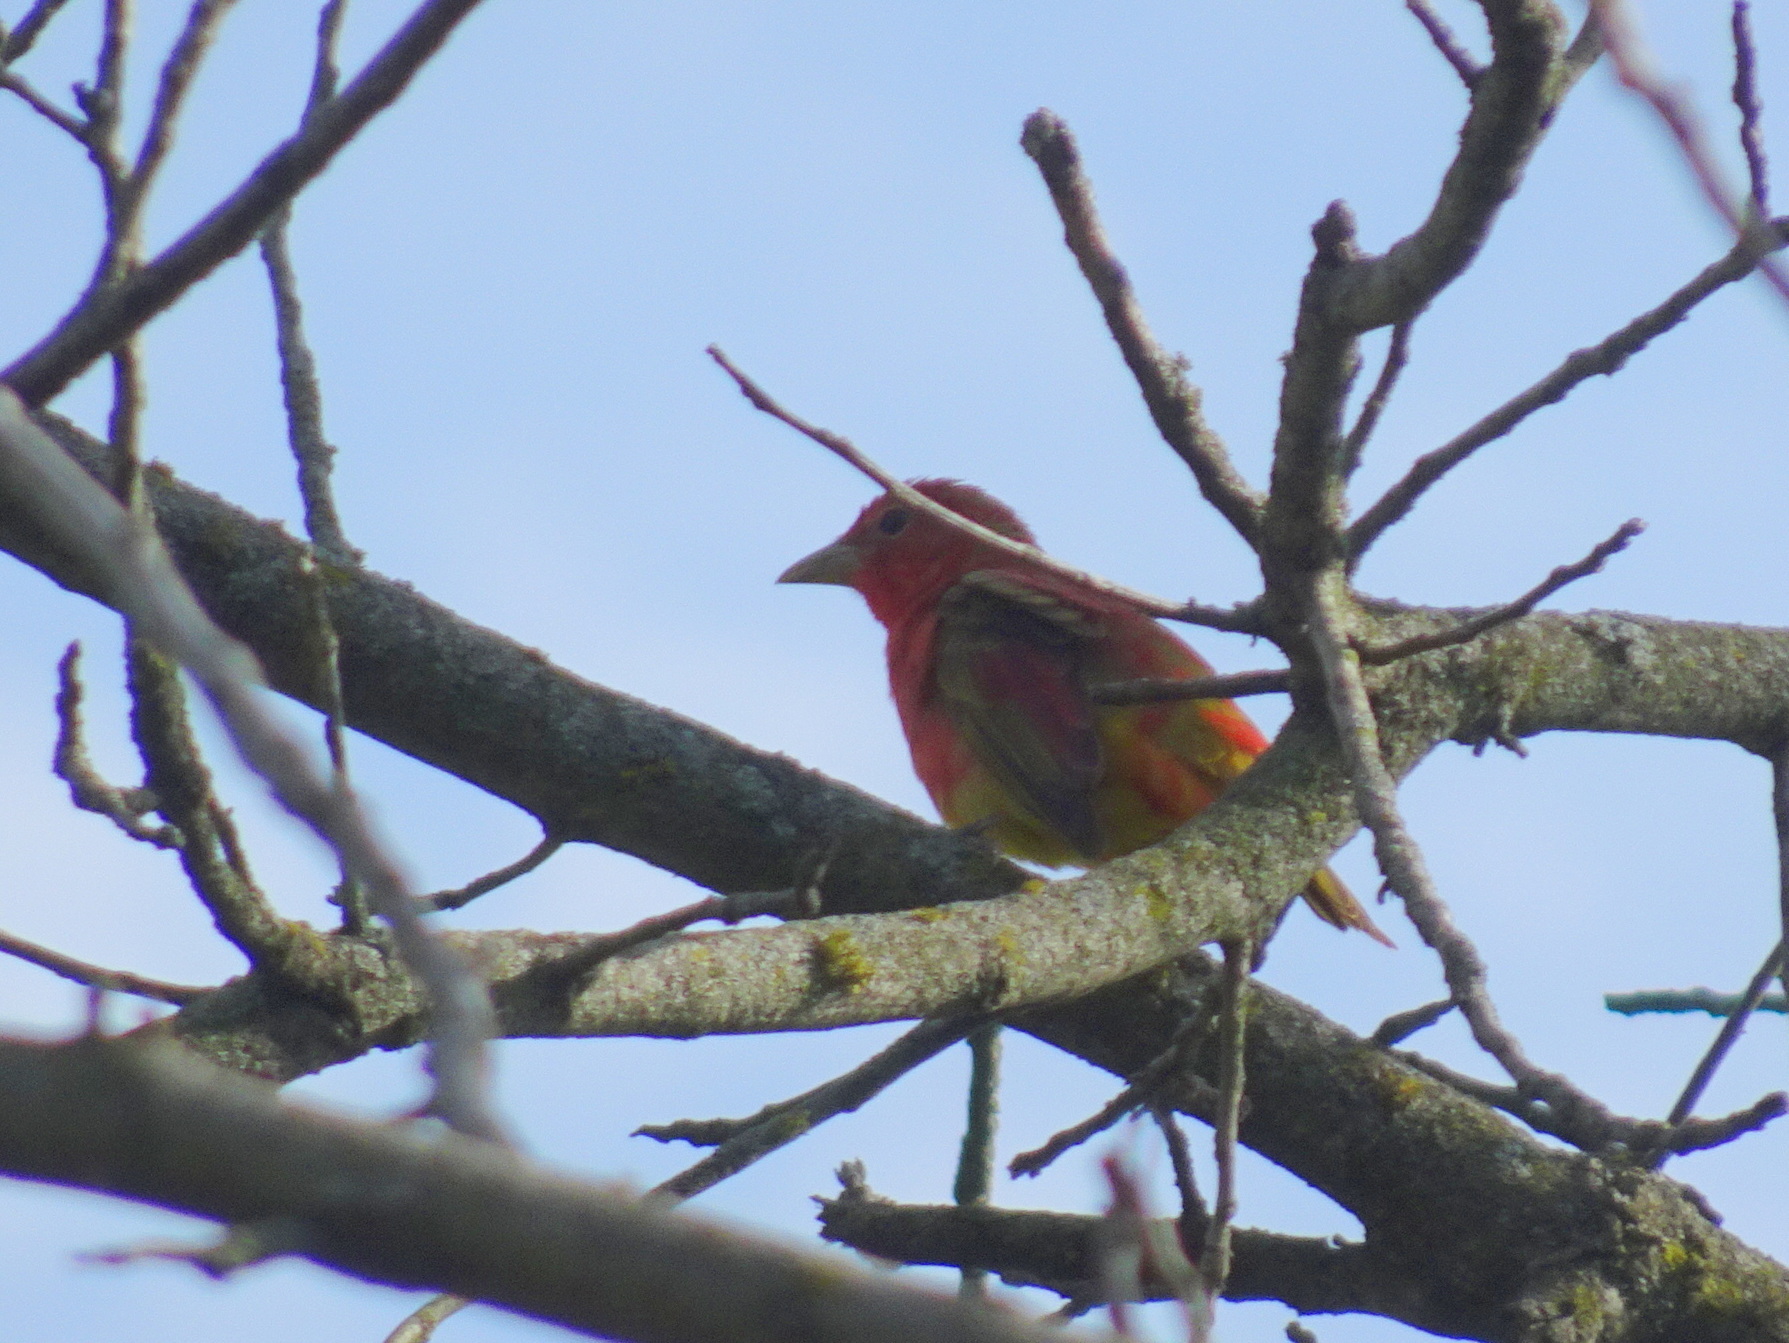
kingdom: Animalia
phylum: Chordata
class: Aves
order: Passeriformes
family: Cardinalidae
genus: Piranga
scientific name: Piranga rubra
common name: Summer tanager
